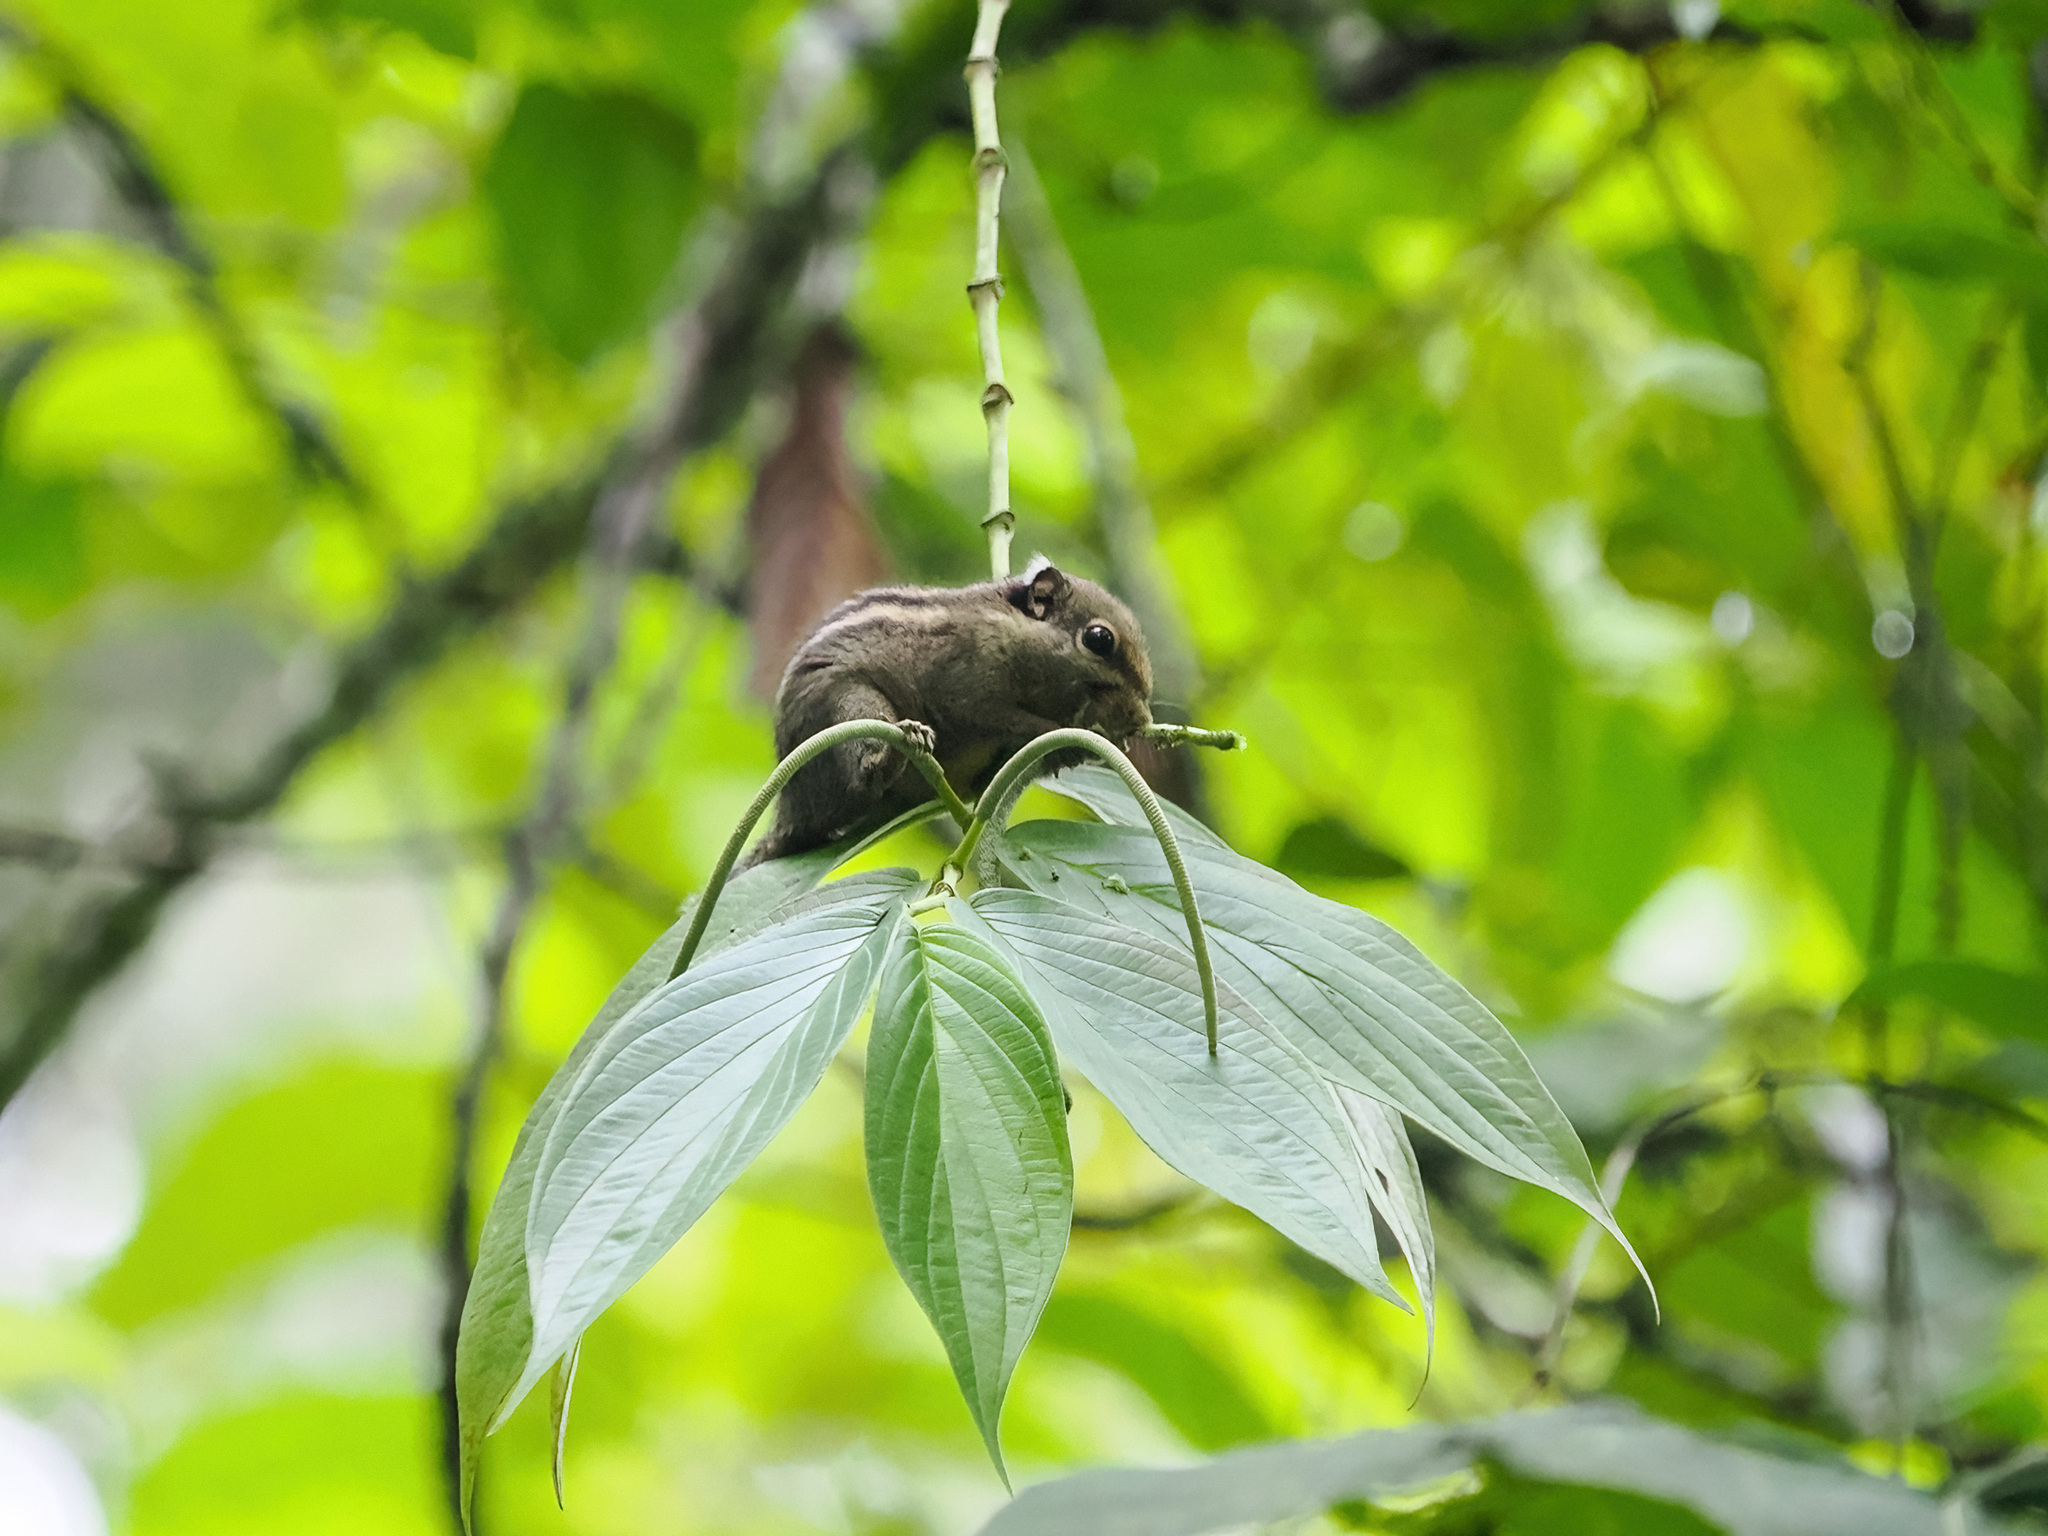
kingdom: Animalia
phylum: Chordata
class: Mammalia
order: Rodentia
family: Sciuridae
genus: Tamiops
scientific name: Tamiops mcclellandii
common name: Himalayan striped squirrel
